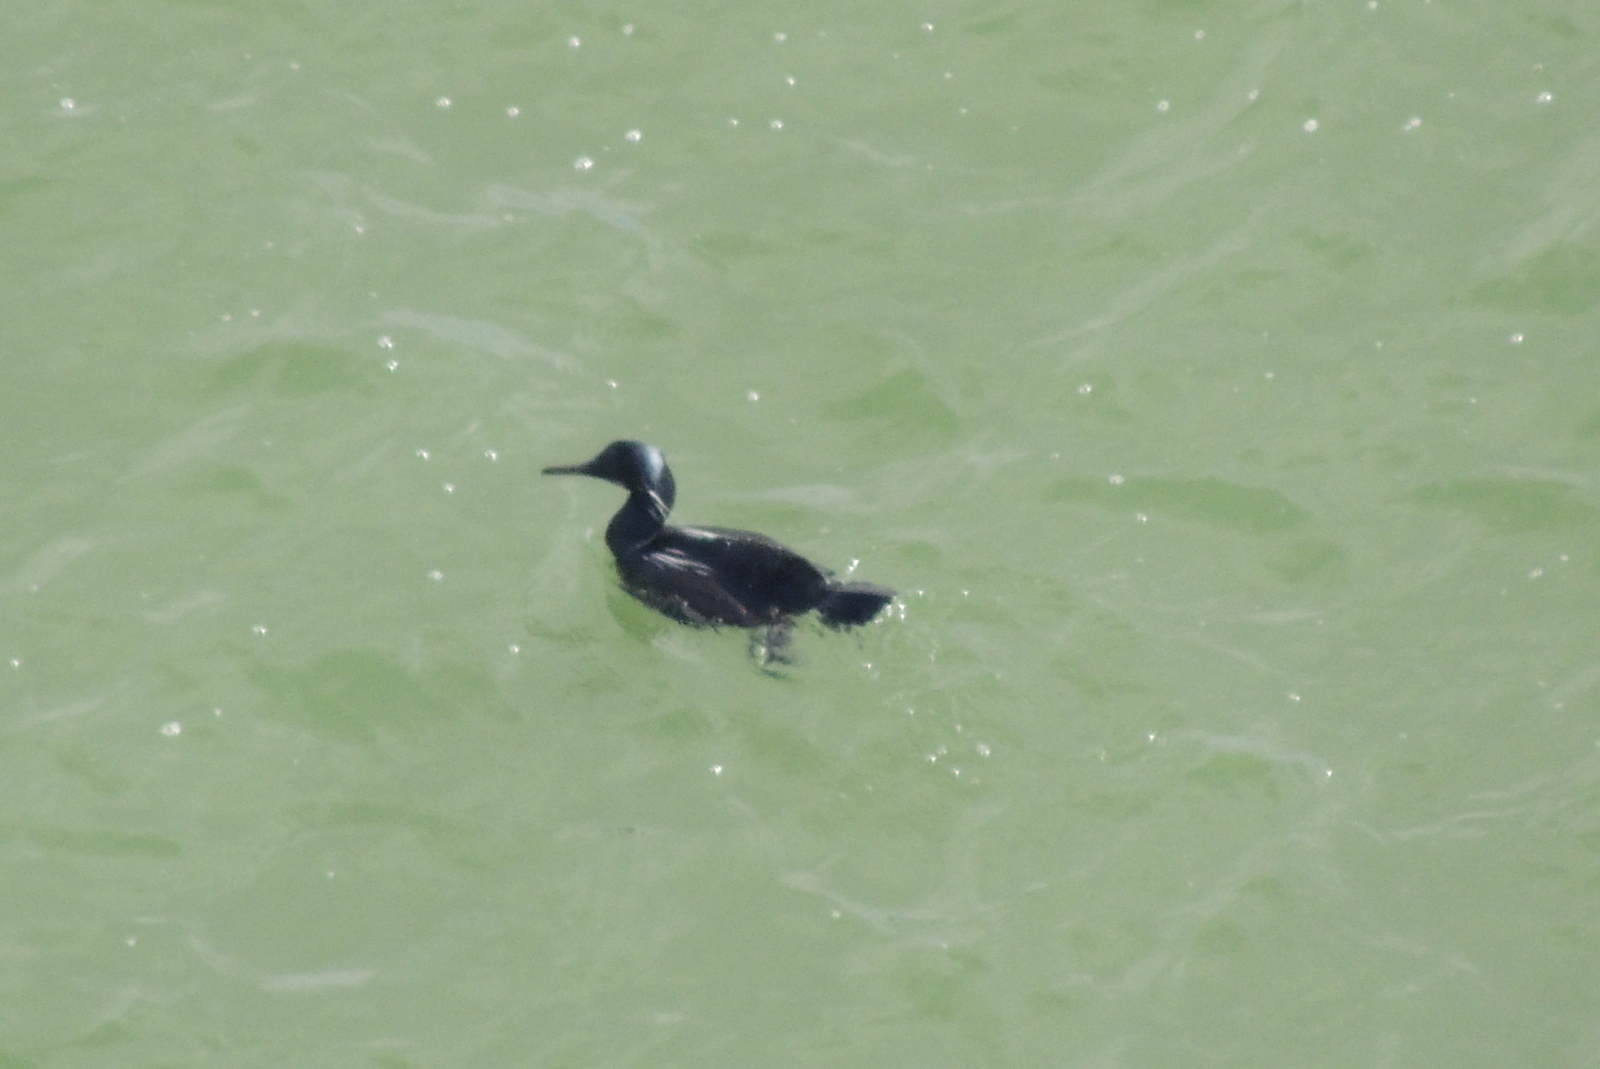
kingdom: Animalia
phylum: Chordata
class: Aves
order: Suliformes
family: Phalacrocoracidae
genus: Phalacrocorax
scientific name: Phalacrocorax pelagicus
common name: Pelagic cormorant
